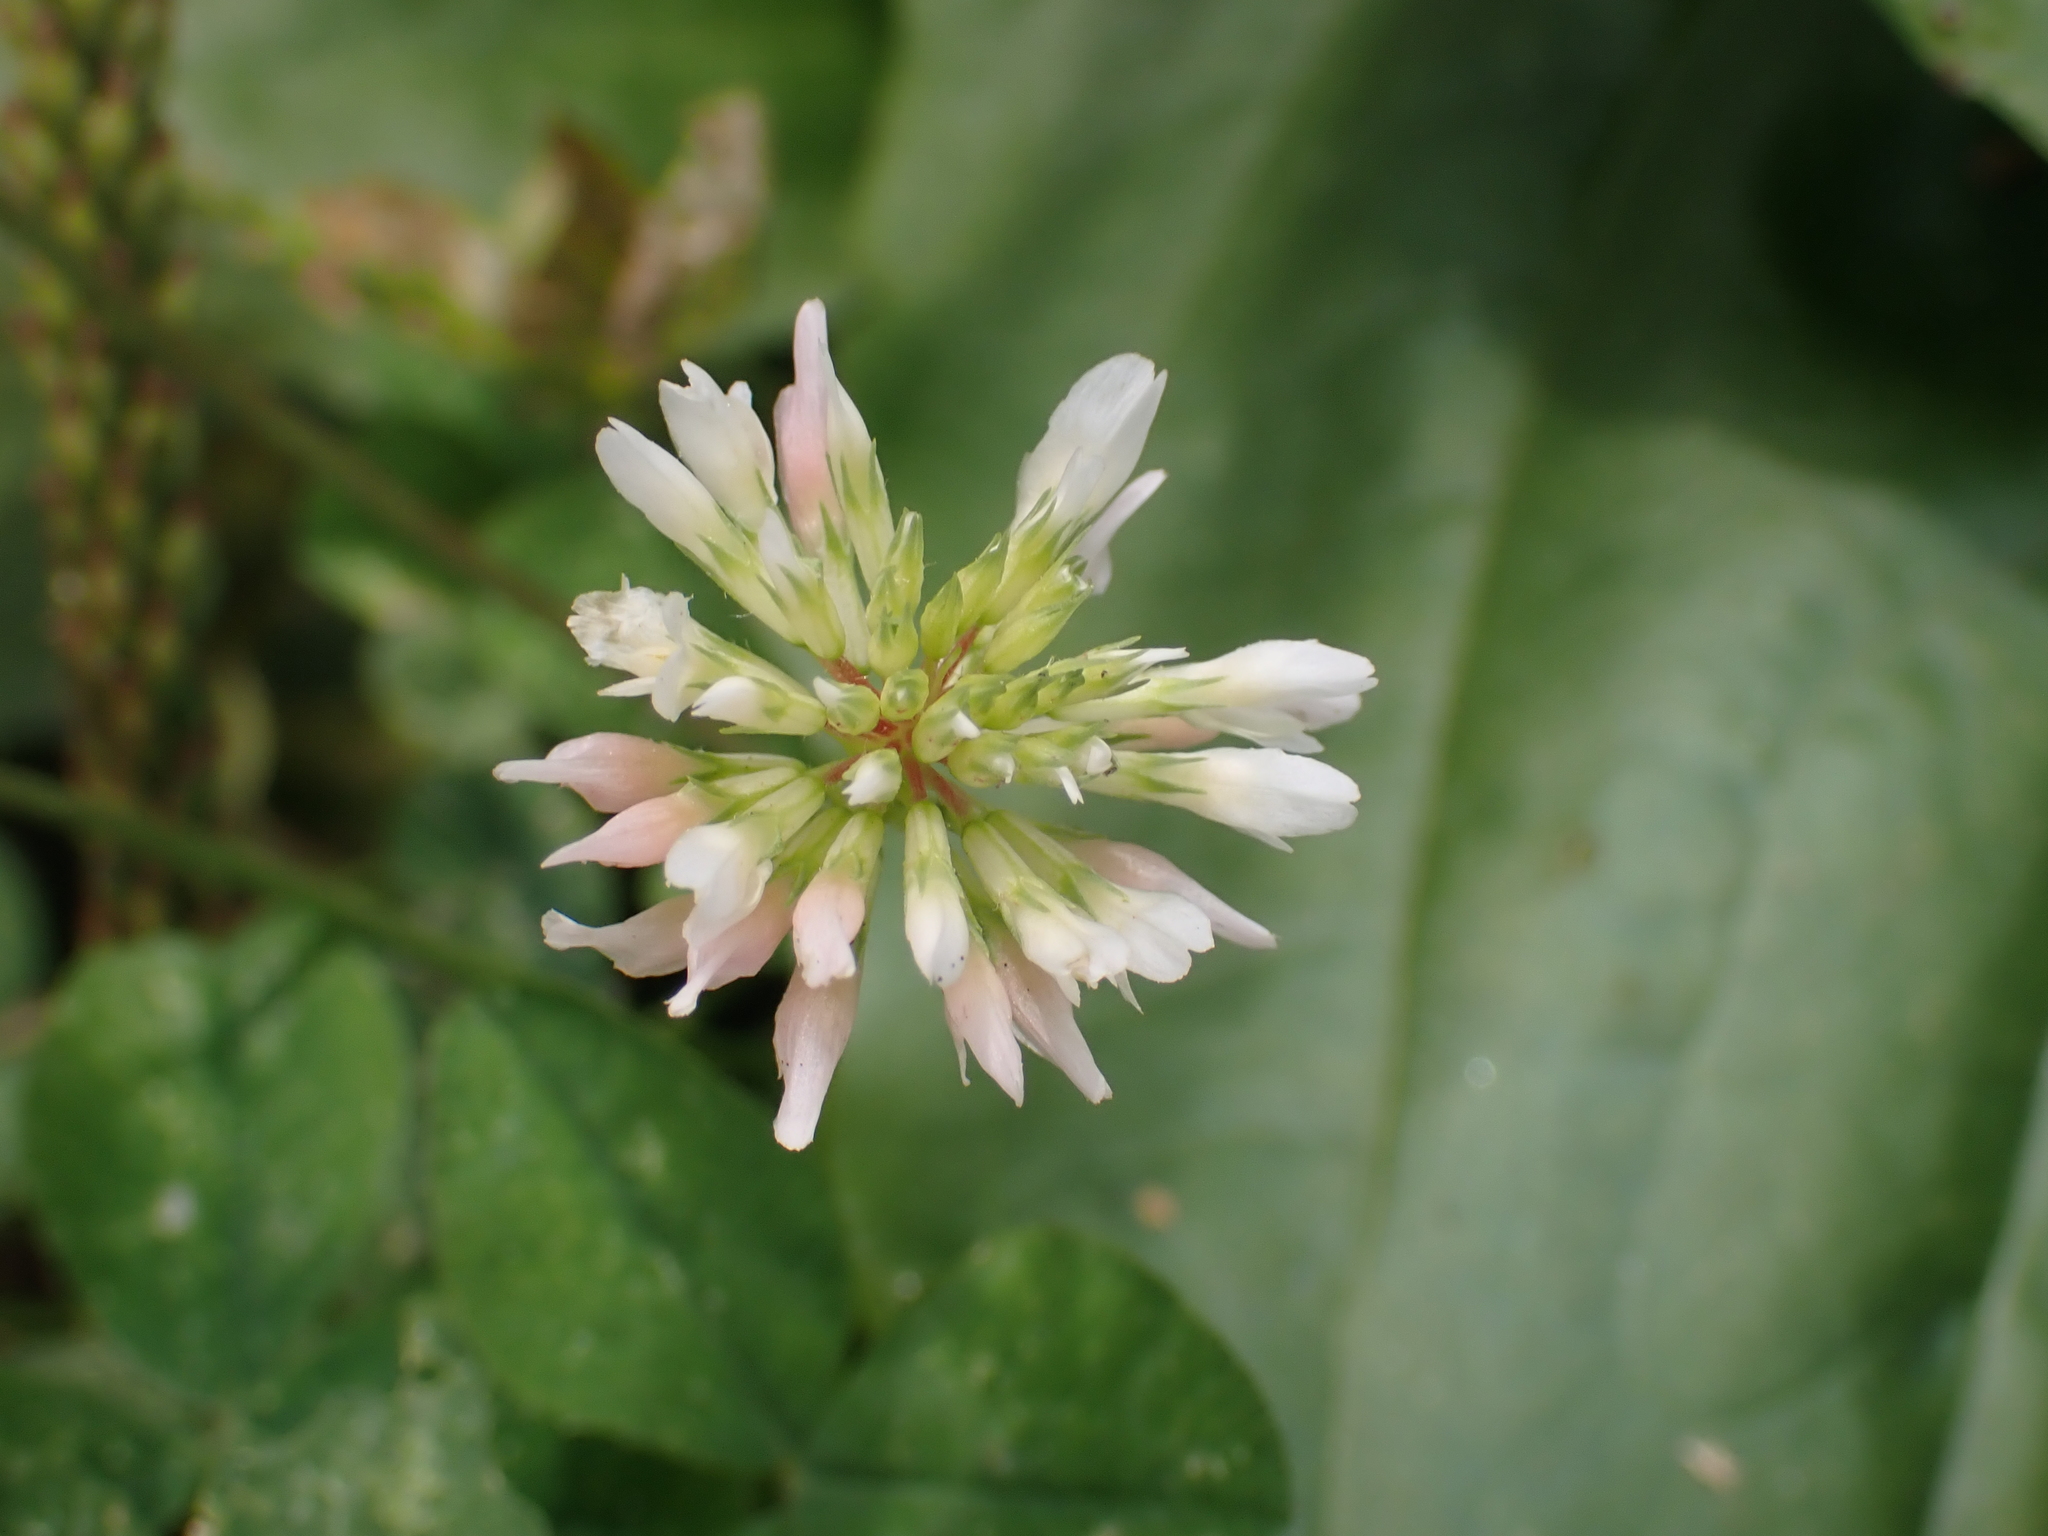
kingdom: Plantae
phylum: Tracheophyta
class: Magnoliopsida
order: Fabales
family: Fabaceae
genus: Trifolium
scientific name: Trifolium repens
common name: White clover
